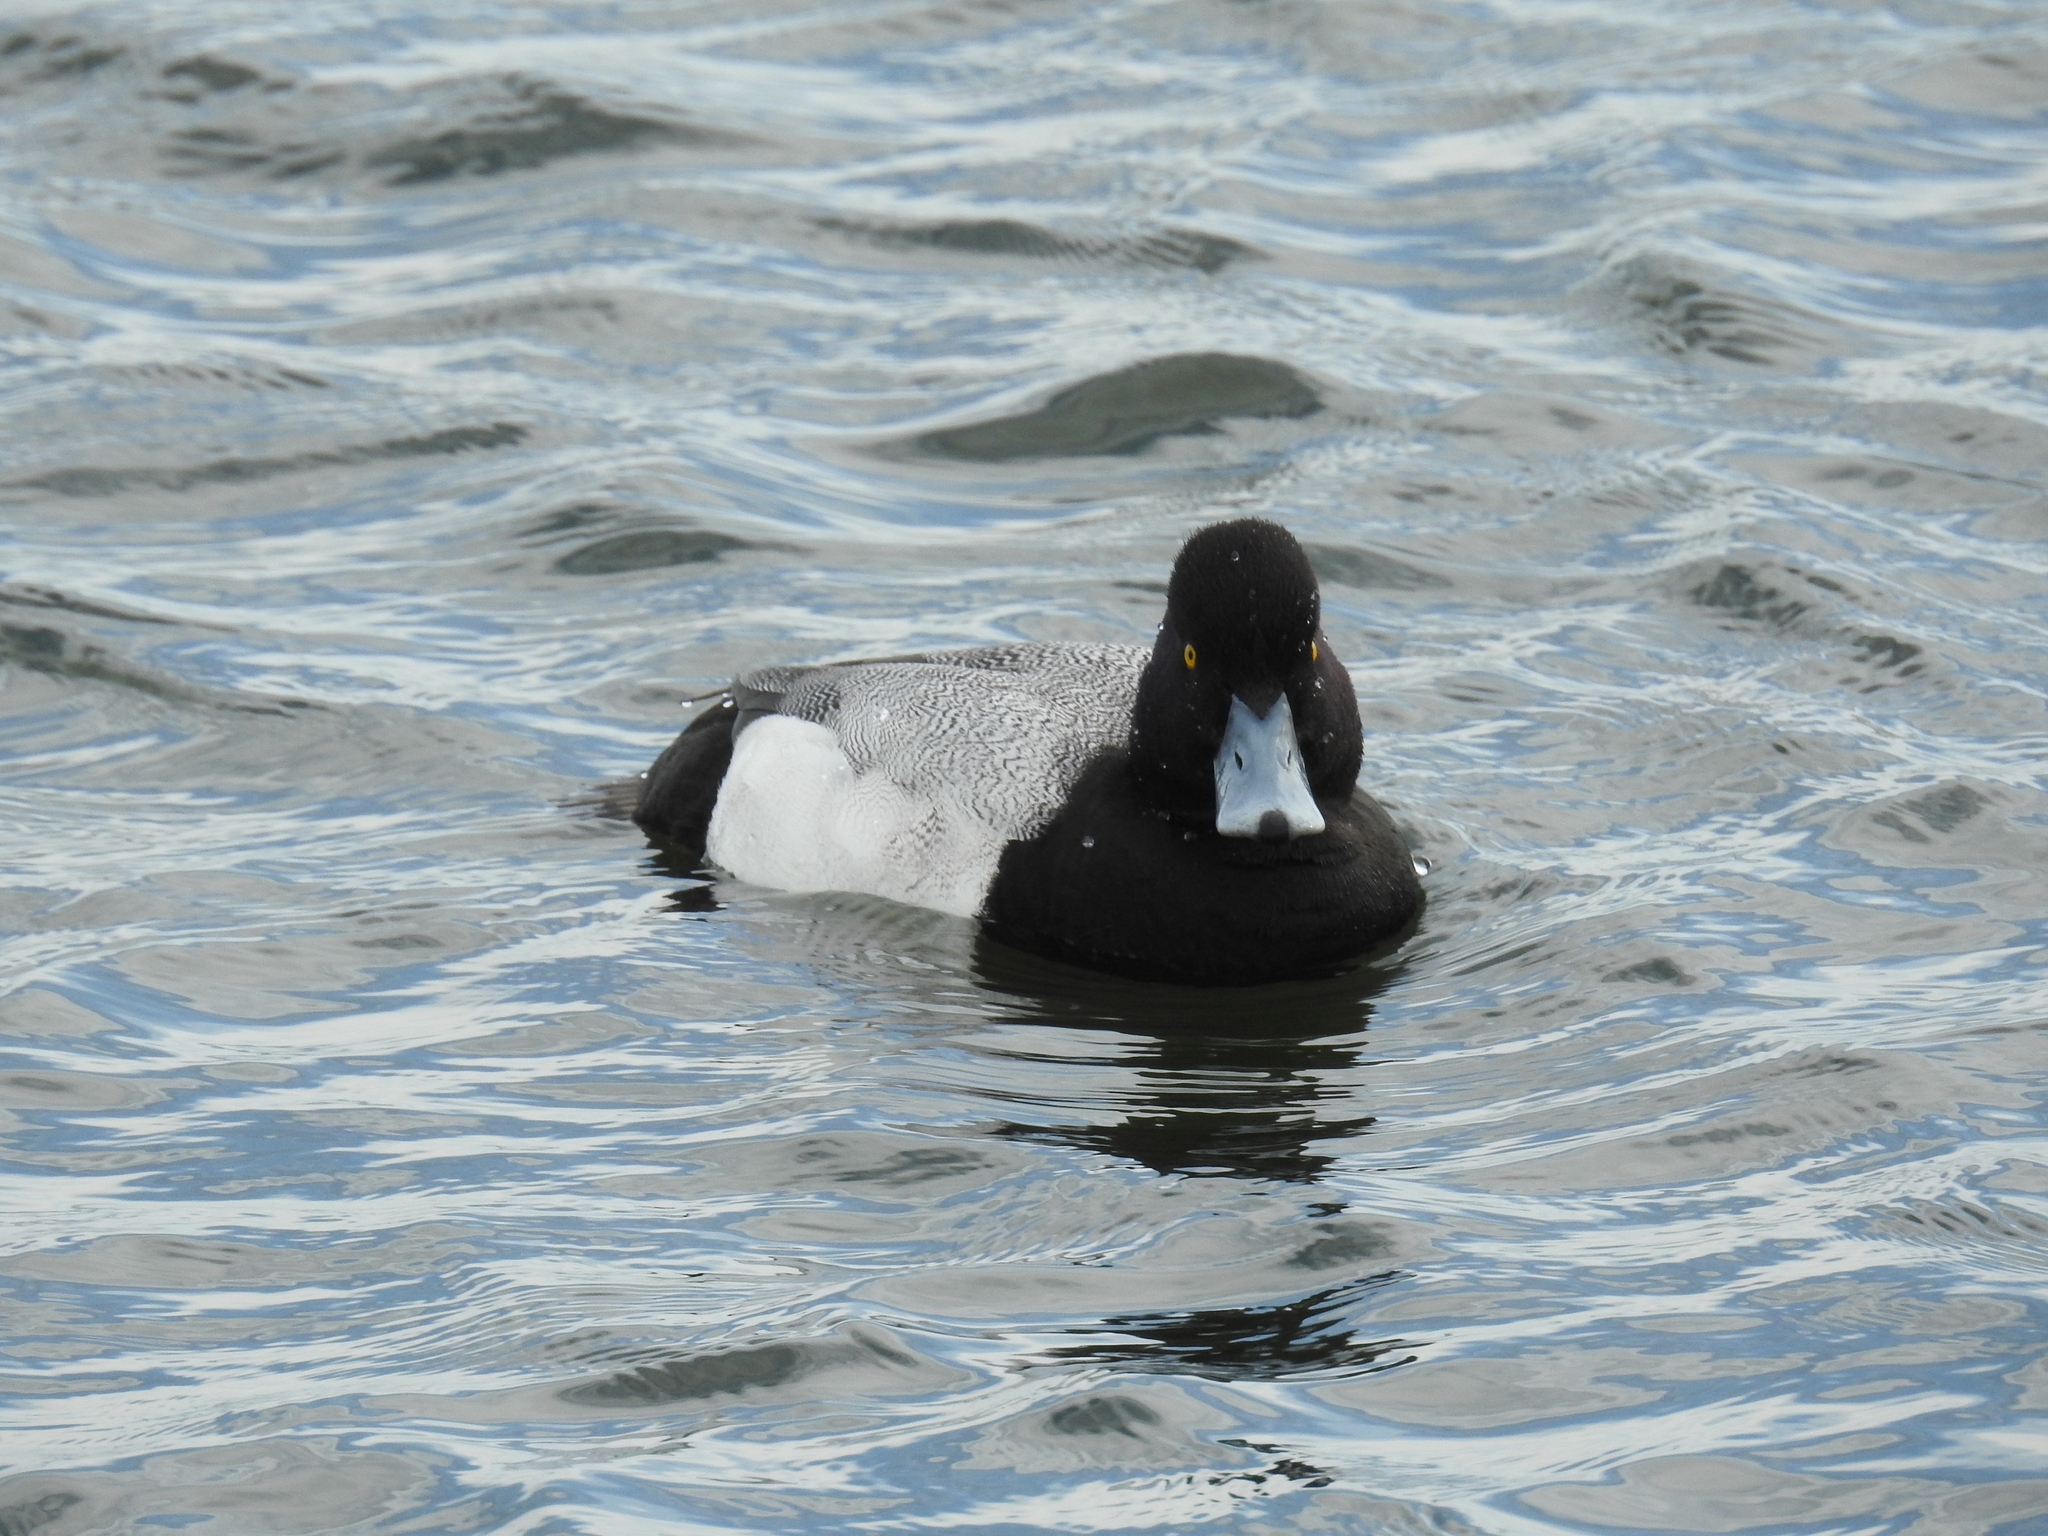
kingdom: Animalia
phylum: Chordata
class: Aves
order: Anseriformes
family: Anatidae
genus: Aythya
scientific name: Aythya affinis
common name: Lesser scaup
